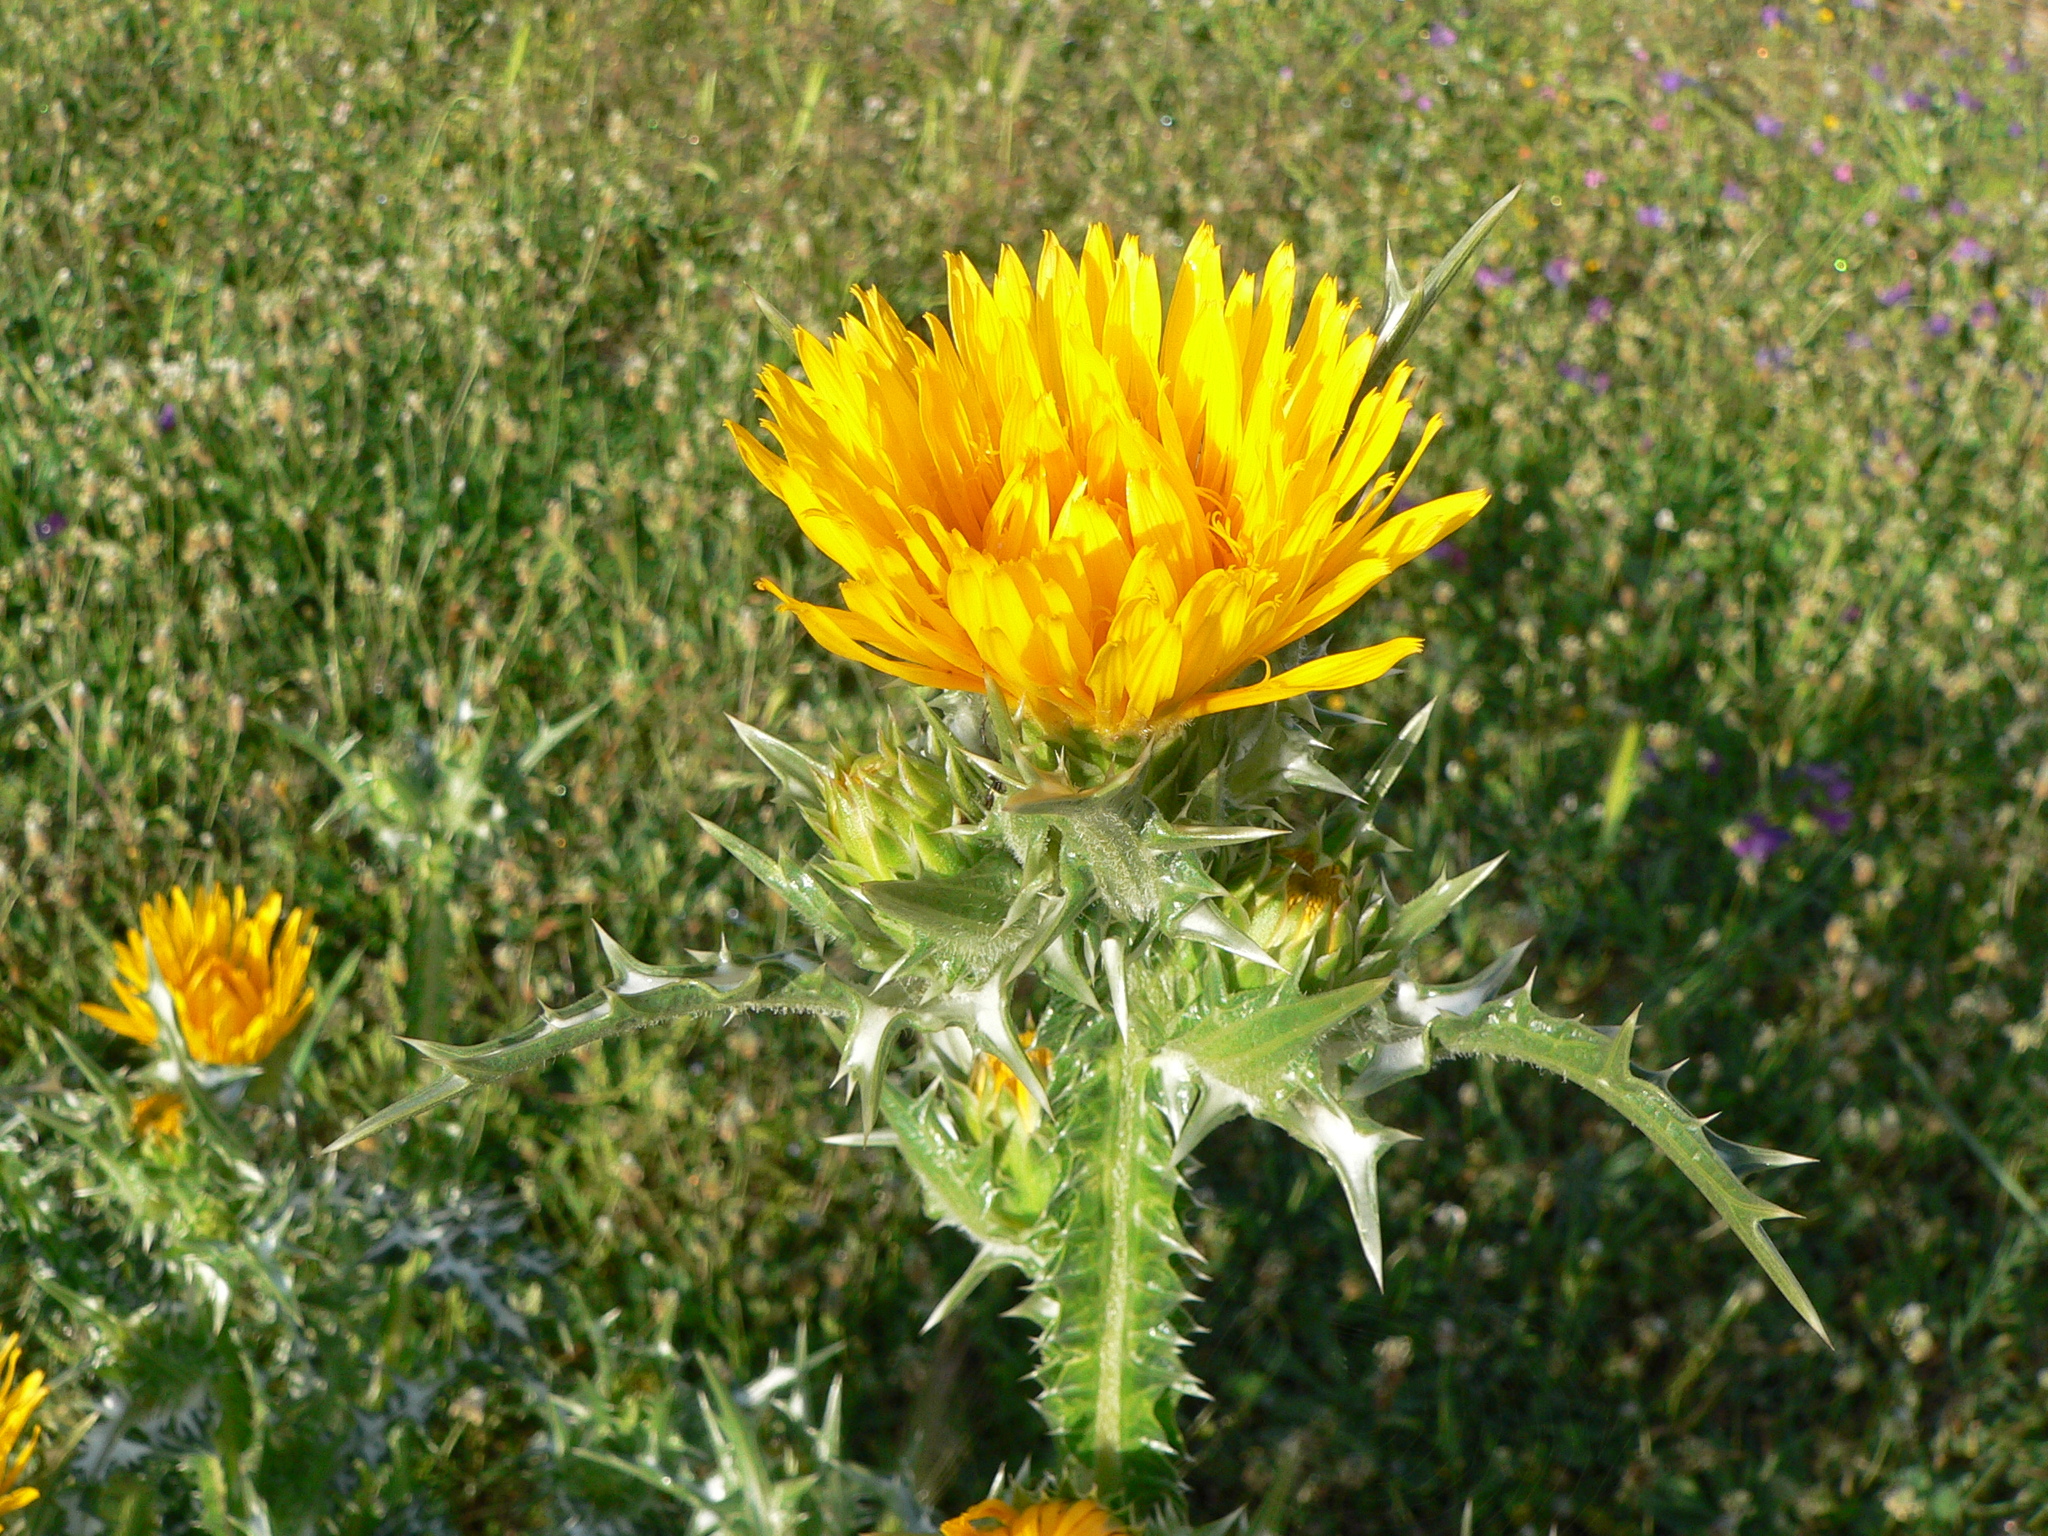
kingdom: Plantae
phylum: Tracheophyta
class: Magnoliopsida
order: Asterales
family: Asteraceae
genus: Scolymus
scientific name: Scolymus grandiflorus
